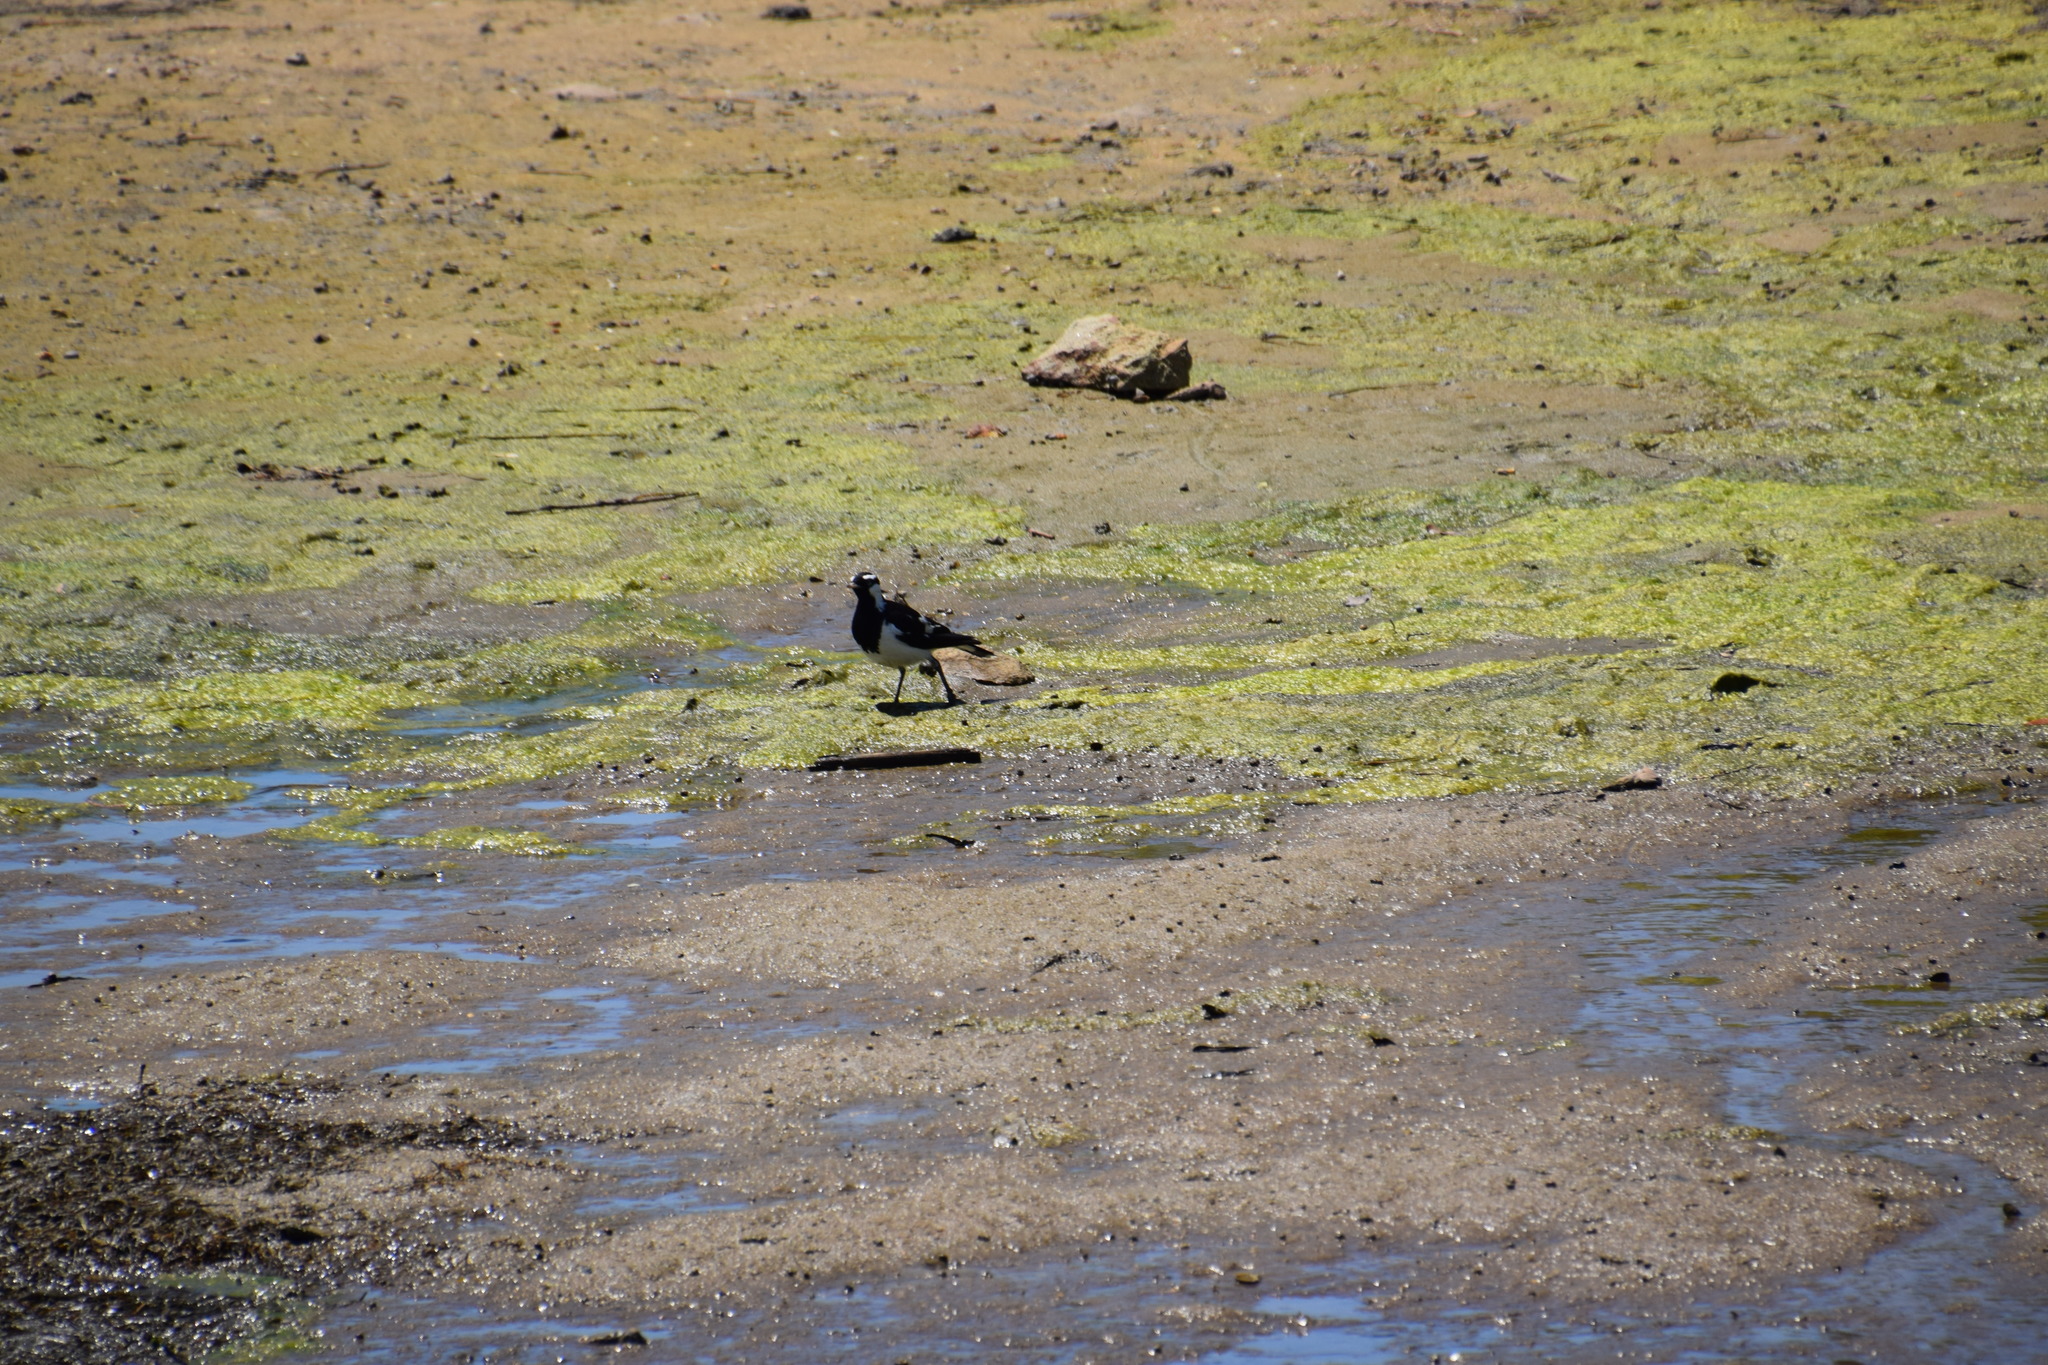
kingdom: Animalia
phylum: Chordata
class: Aves
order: Passeriformes
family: Monarchidae
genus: Grallina
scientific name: Grallina cyanoleuca
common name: Magpie-lark
